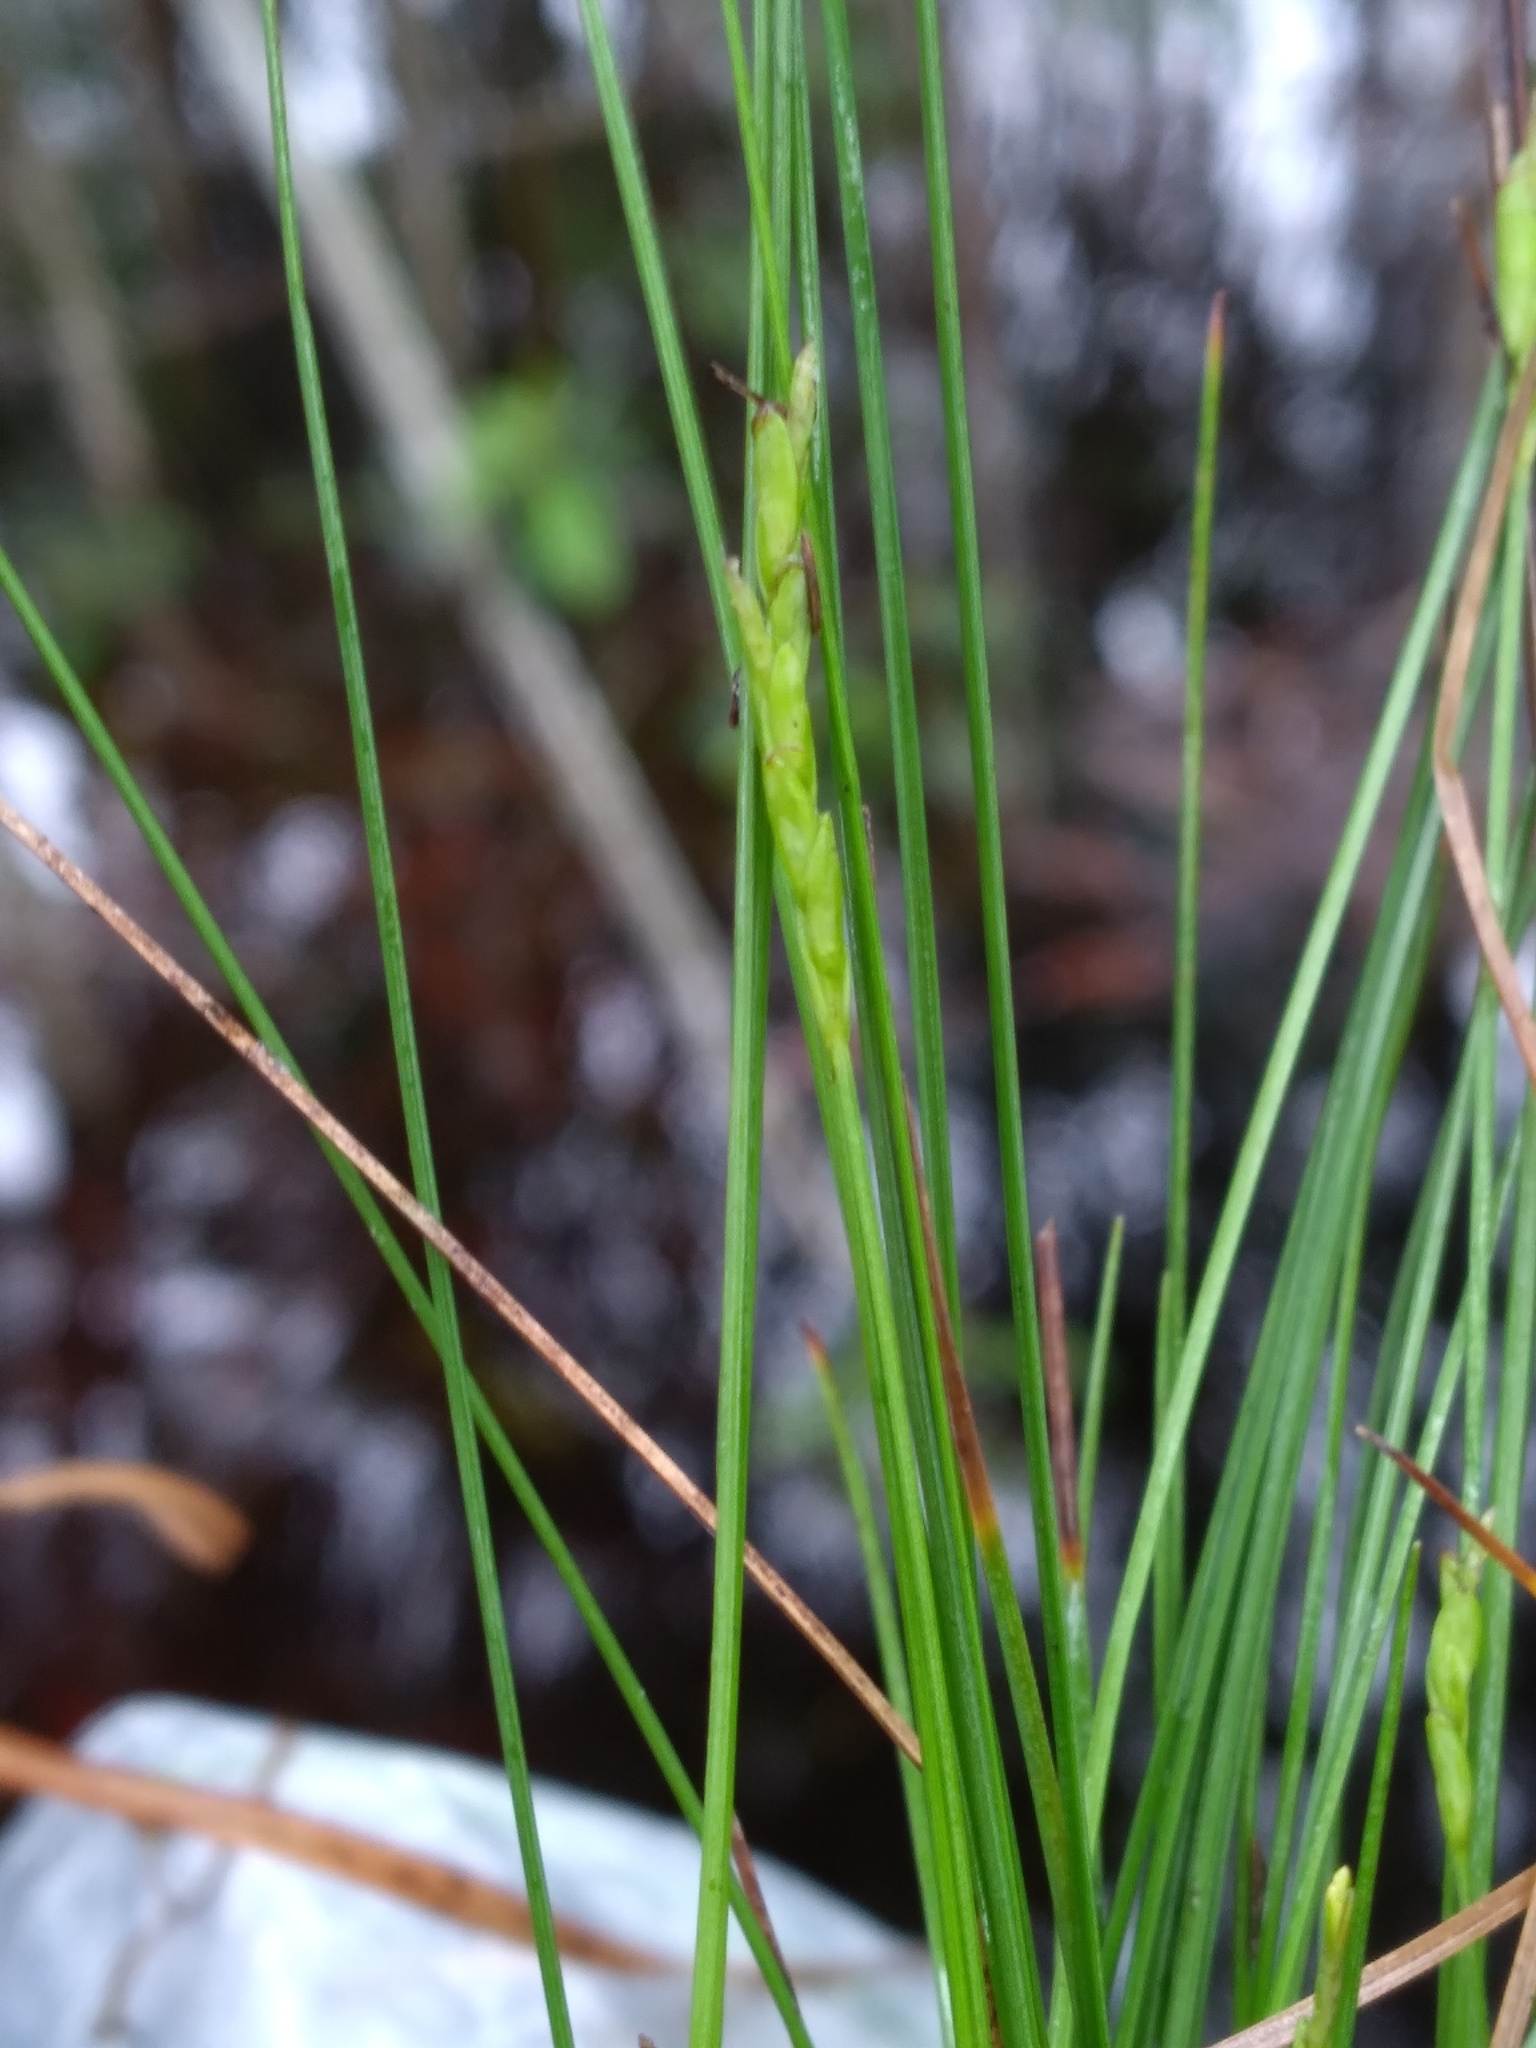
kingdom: Plantae
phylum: Tracheophyta
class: Liliopsida
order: Poales
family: Cyperaceae
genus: Carex
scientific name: Carex leptalea
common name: Bristly-stalked sedge
